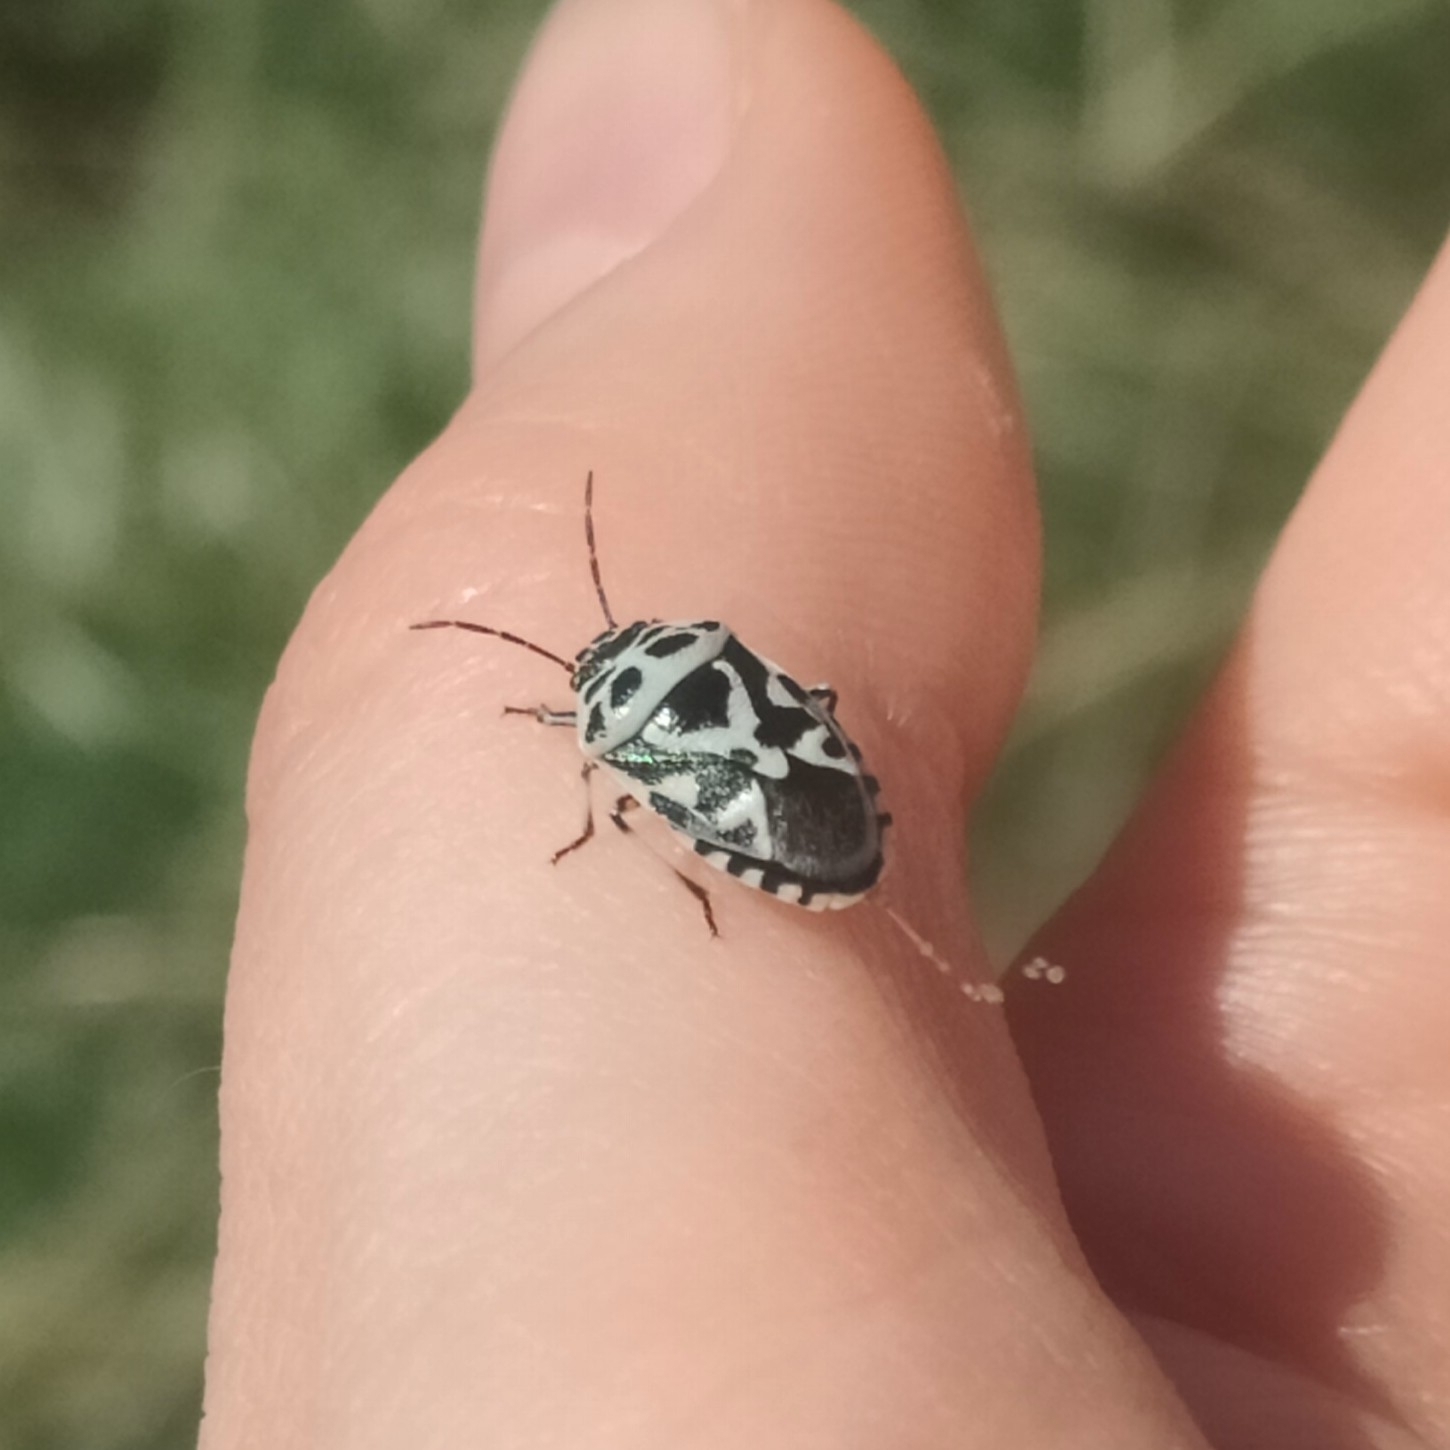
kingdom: Animalia
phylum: Arthropoda
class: Insecta
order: Hemiptera
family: Pentatomidae
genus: Eurydema
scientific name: Eurydema ornata
